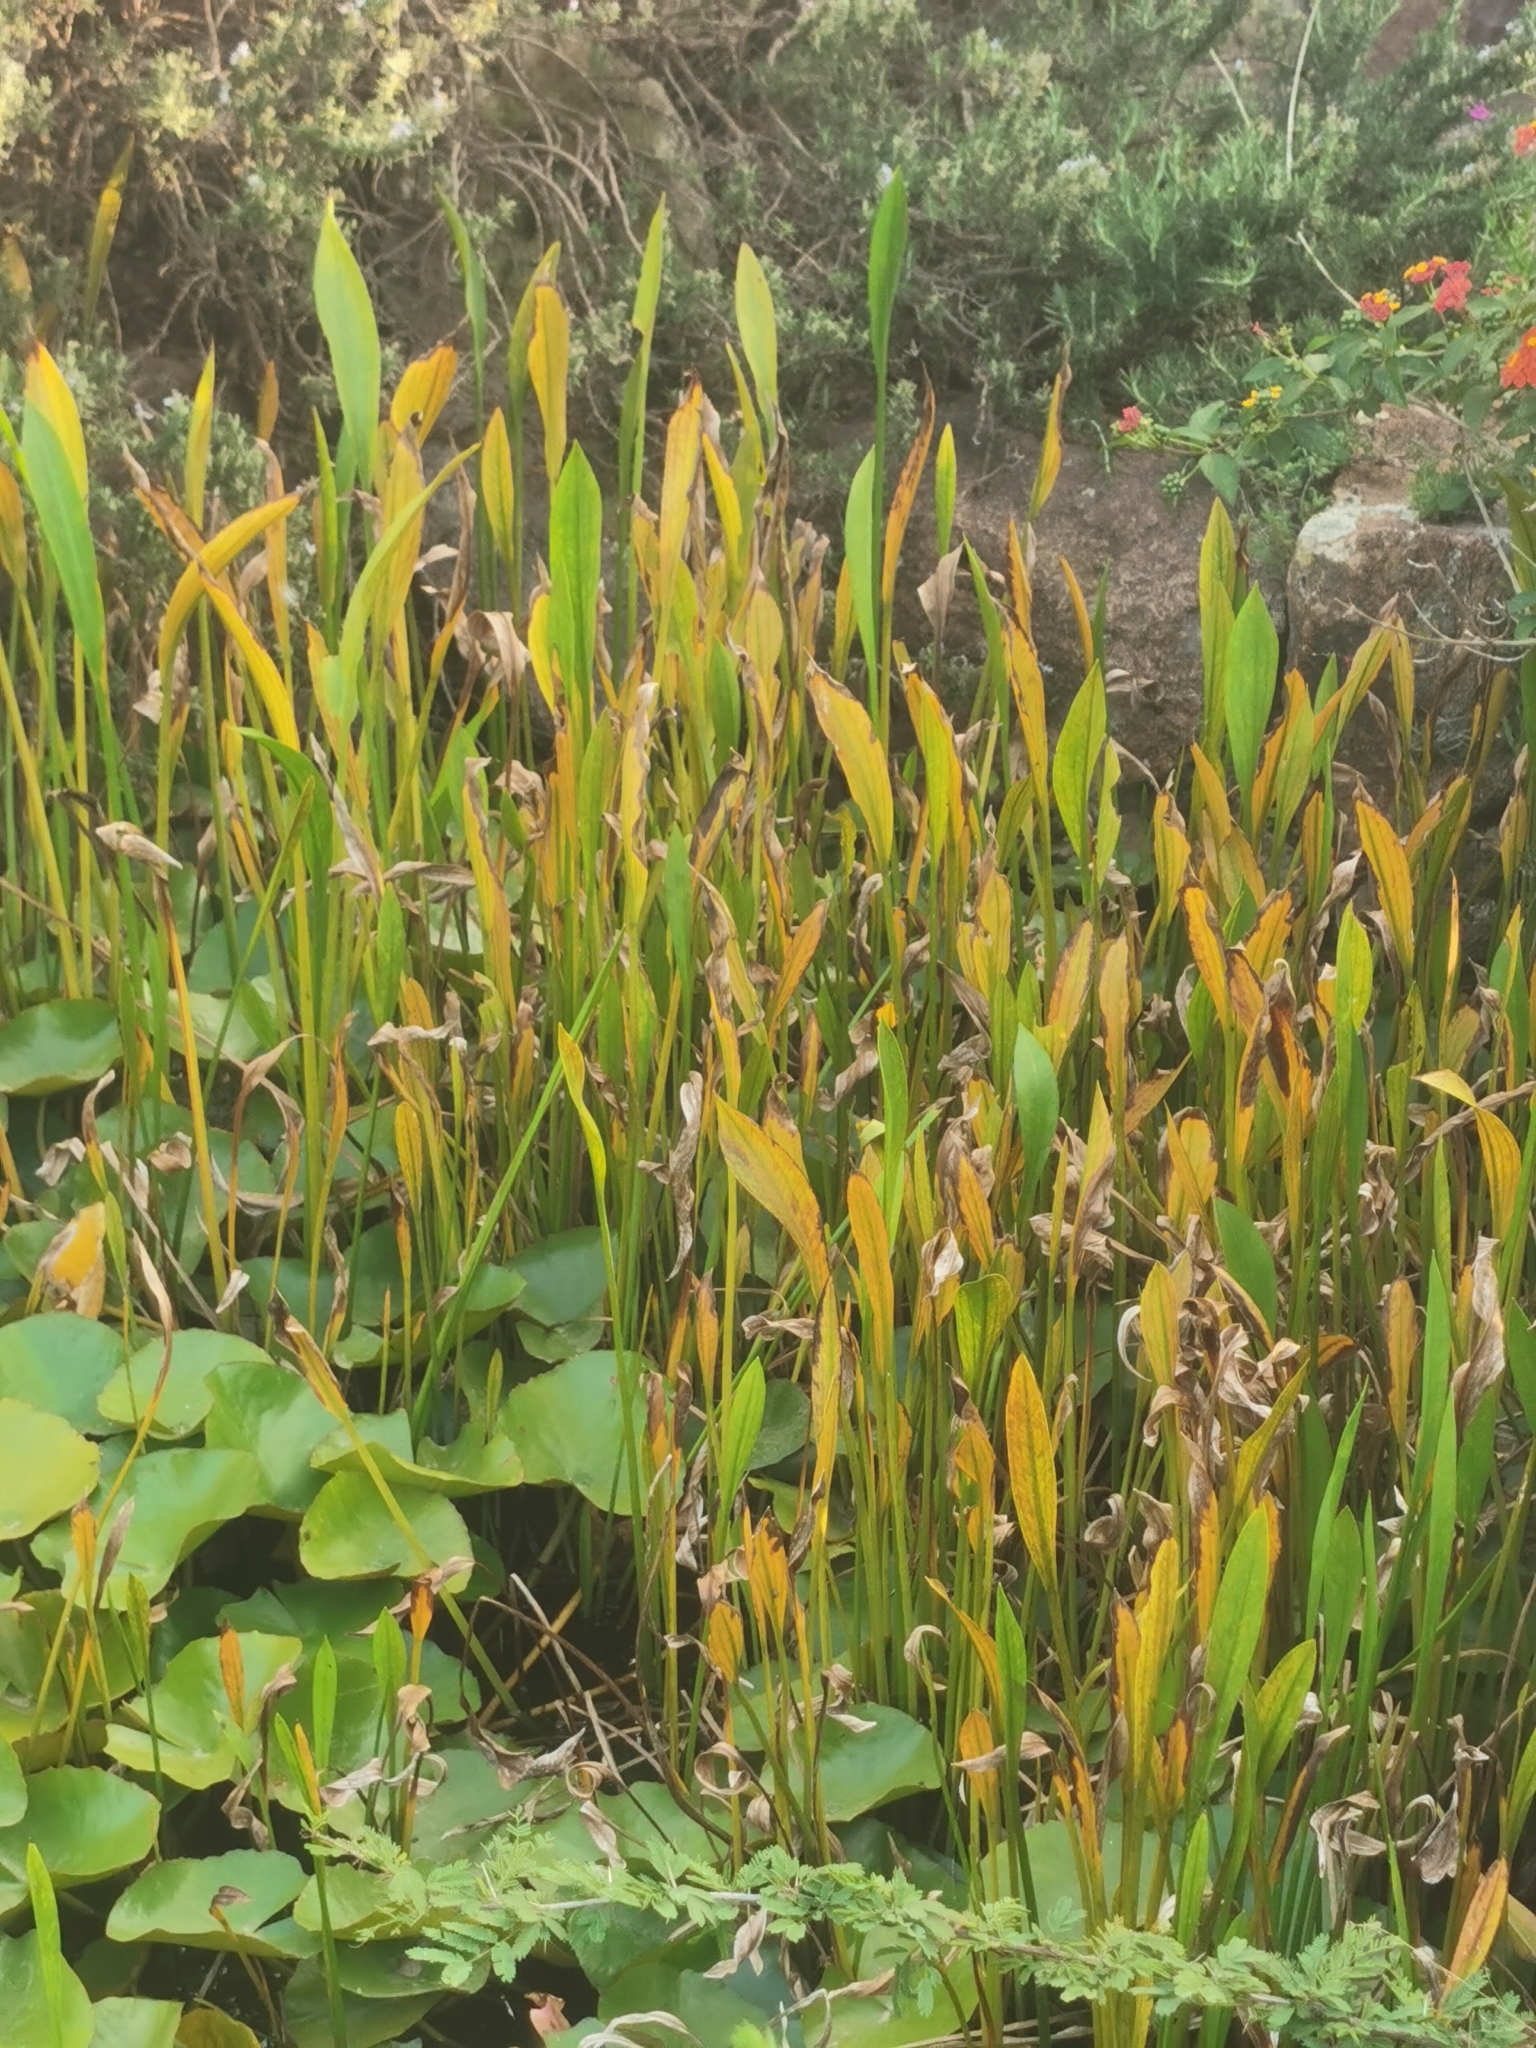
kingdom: Plantae
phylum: Tracheophyta
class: Liliopsida
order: Alismatales
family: Alismataceae
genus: Sagittaria
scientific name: Sagittaria lancifolia
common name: Lance-leaf arrowhead
